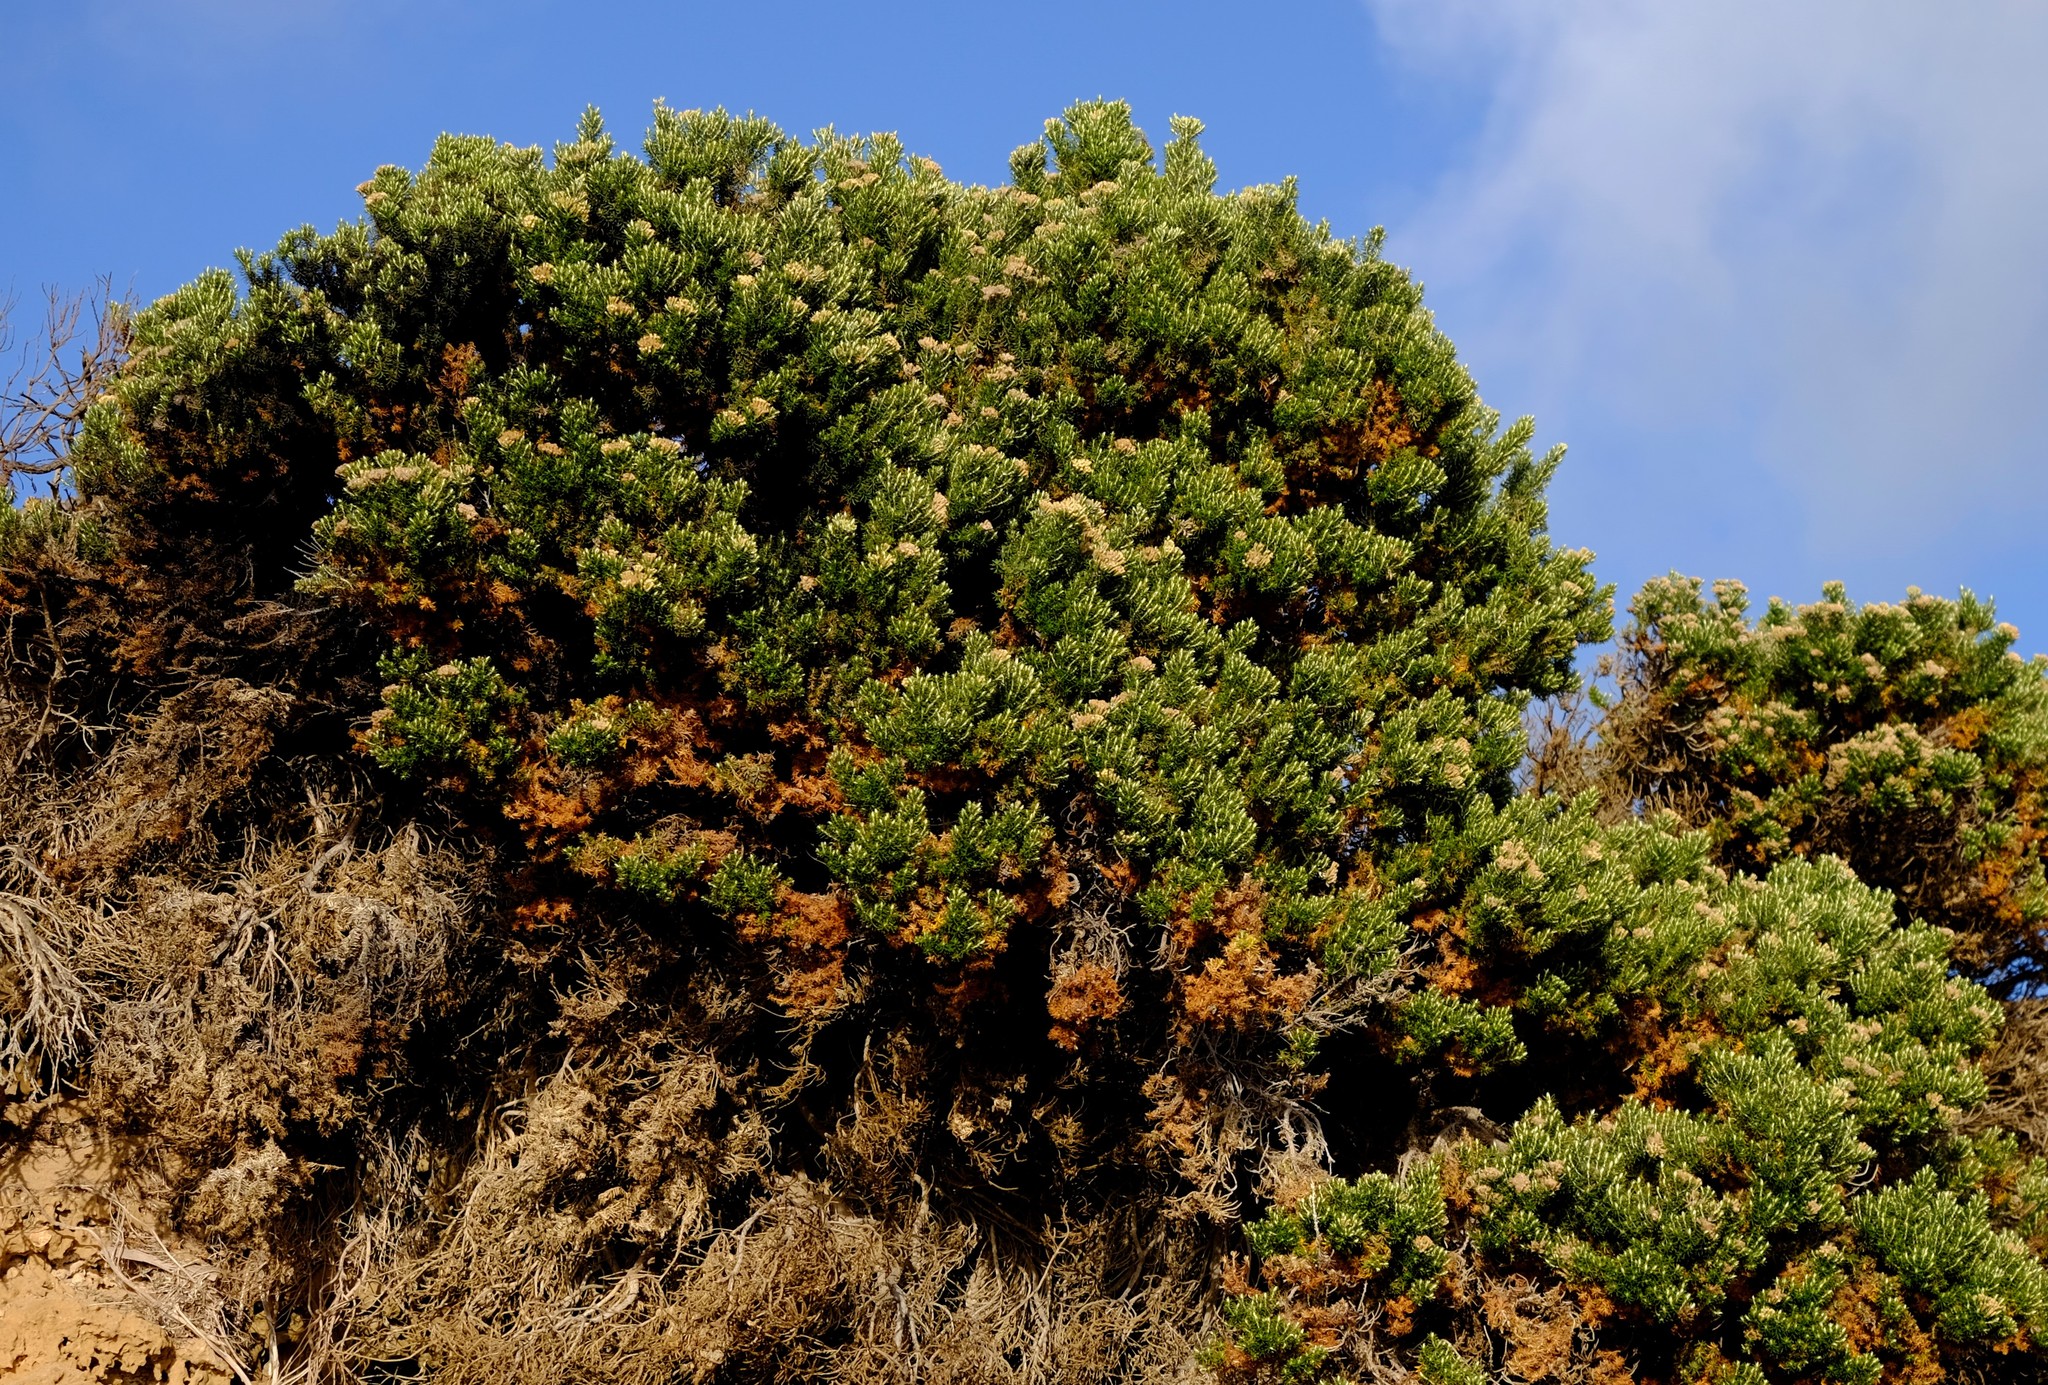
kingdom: Plantae
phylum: Tracheophyta
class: Magnoliopsida
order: Asterales
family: Asteraceae
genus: Ozothamnus
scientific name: Ozothamnus cinereus
